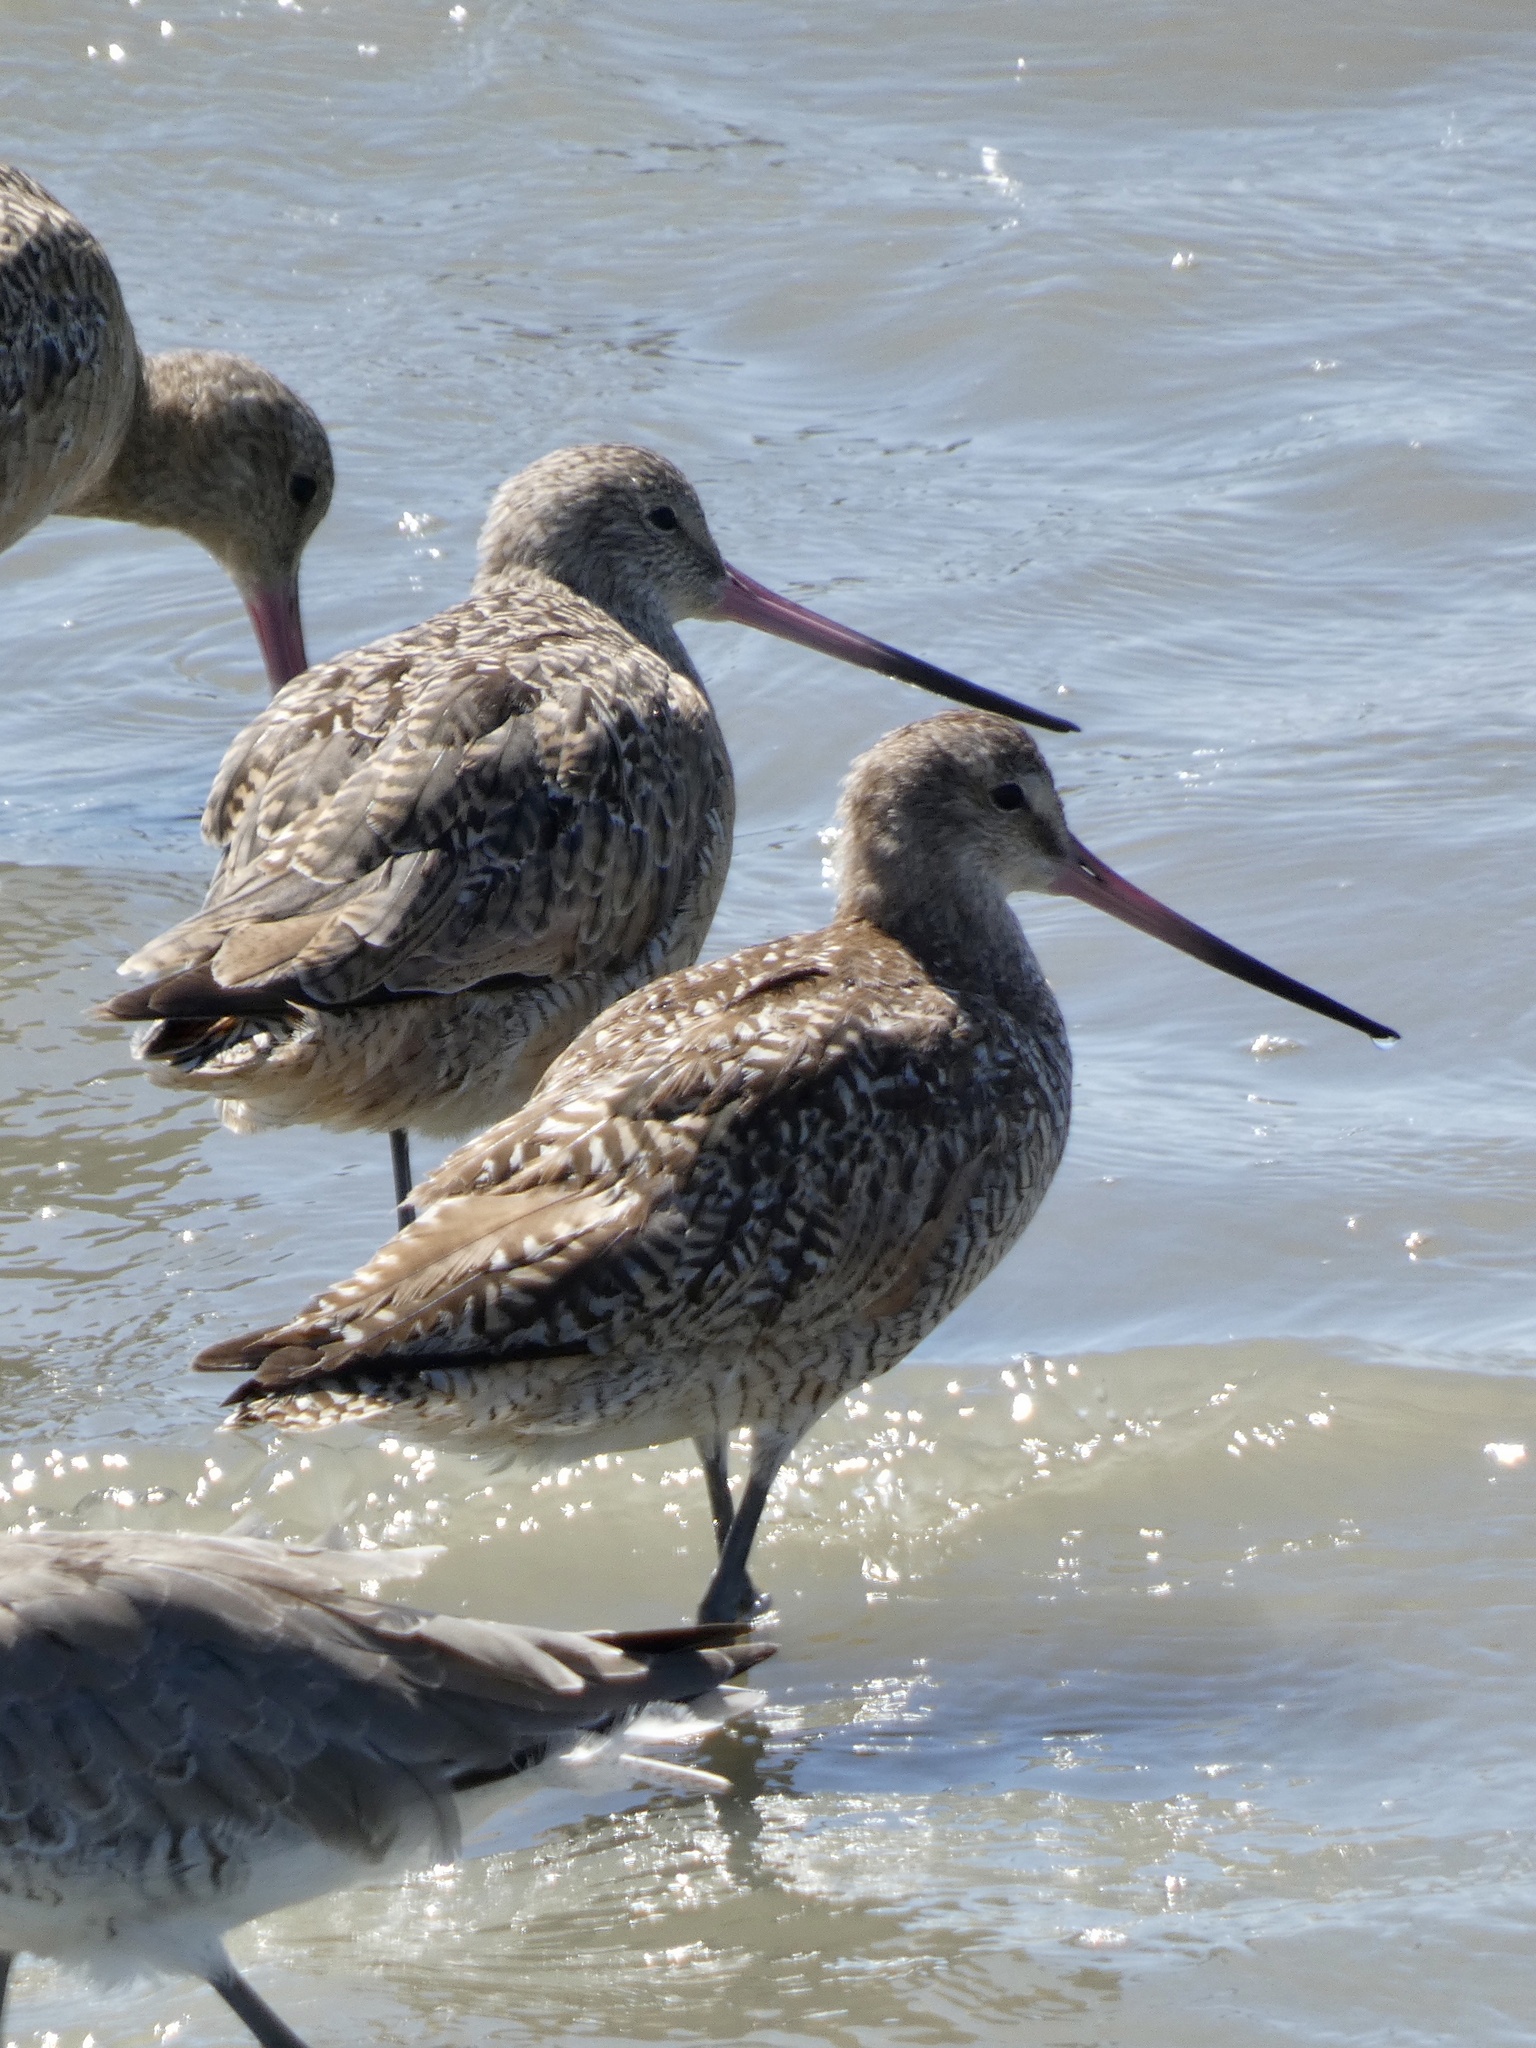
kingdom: Animalia
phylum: Chordata
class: Aves
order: Charadriiformes
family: Scolopacidae
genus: Limosa
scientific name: Limosa fedoa
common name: Marbled godwit
